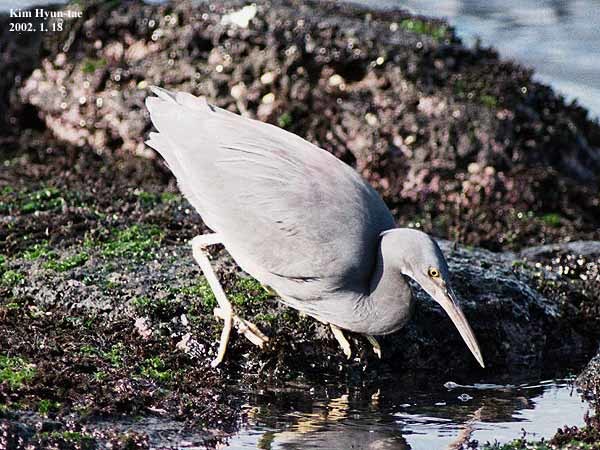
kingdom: Animalia
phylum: Chordata
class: Aves
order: Pelecaniformes
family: Ardeidae
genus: Egretta
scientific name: Egretta sacra
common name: Pacific reef heron
